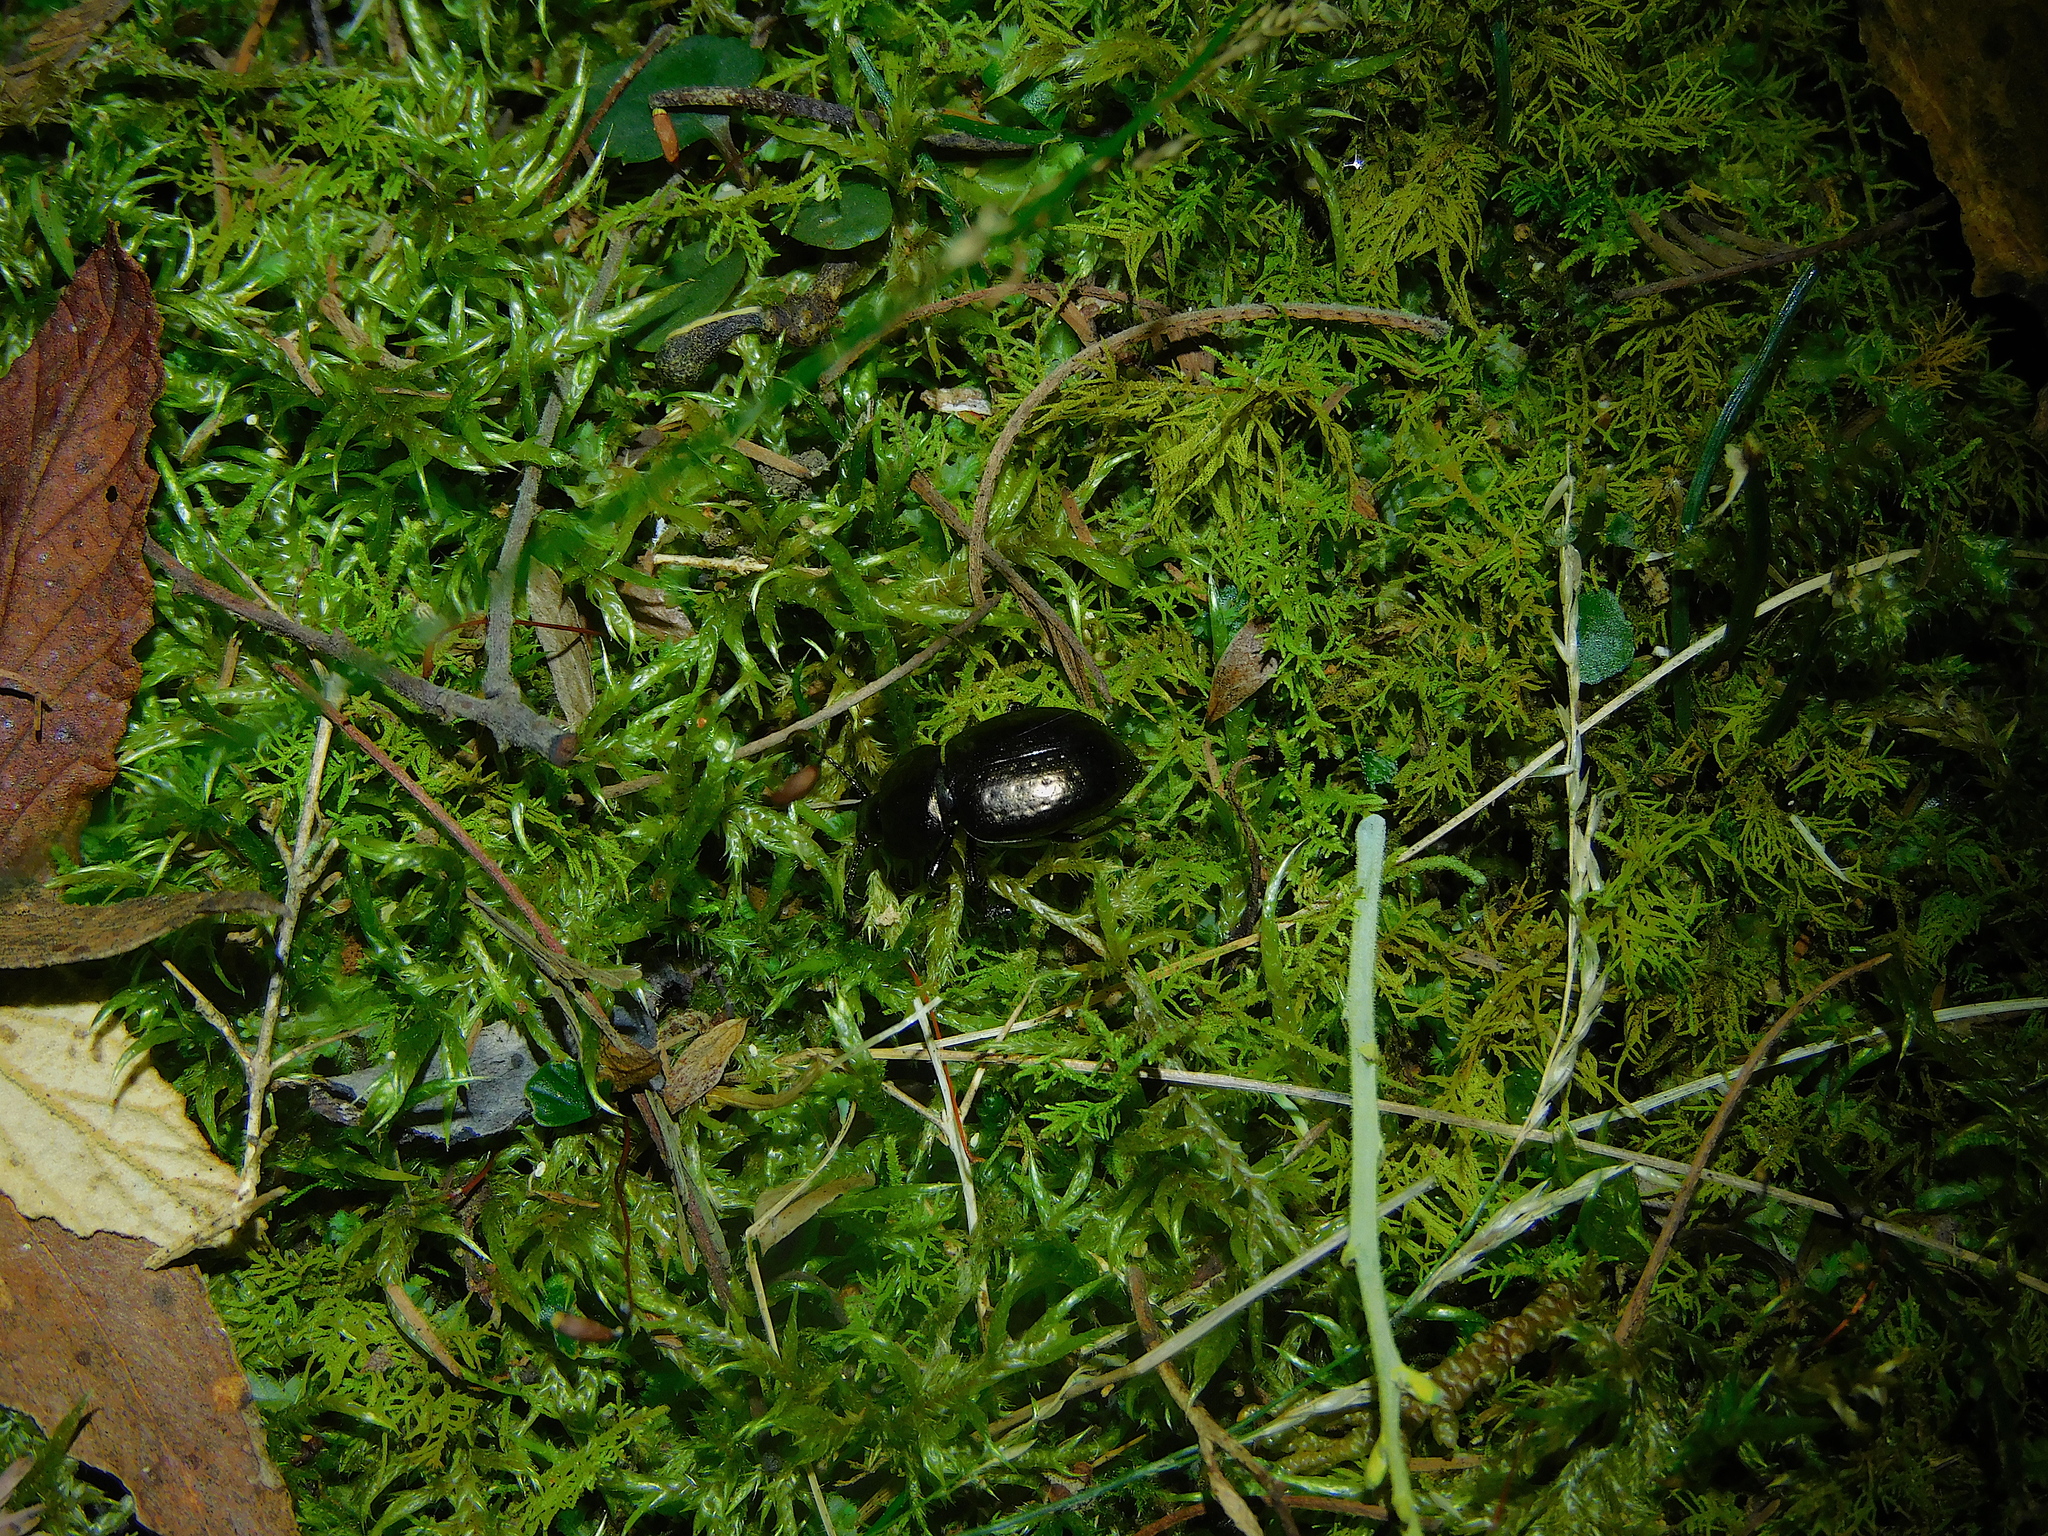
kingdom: Animalia
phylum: Arthropoda
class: Insecta
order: Coleoptera
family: Tenebrionidae
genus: Adelium
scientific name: Adelium abbreviatum
